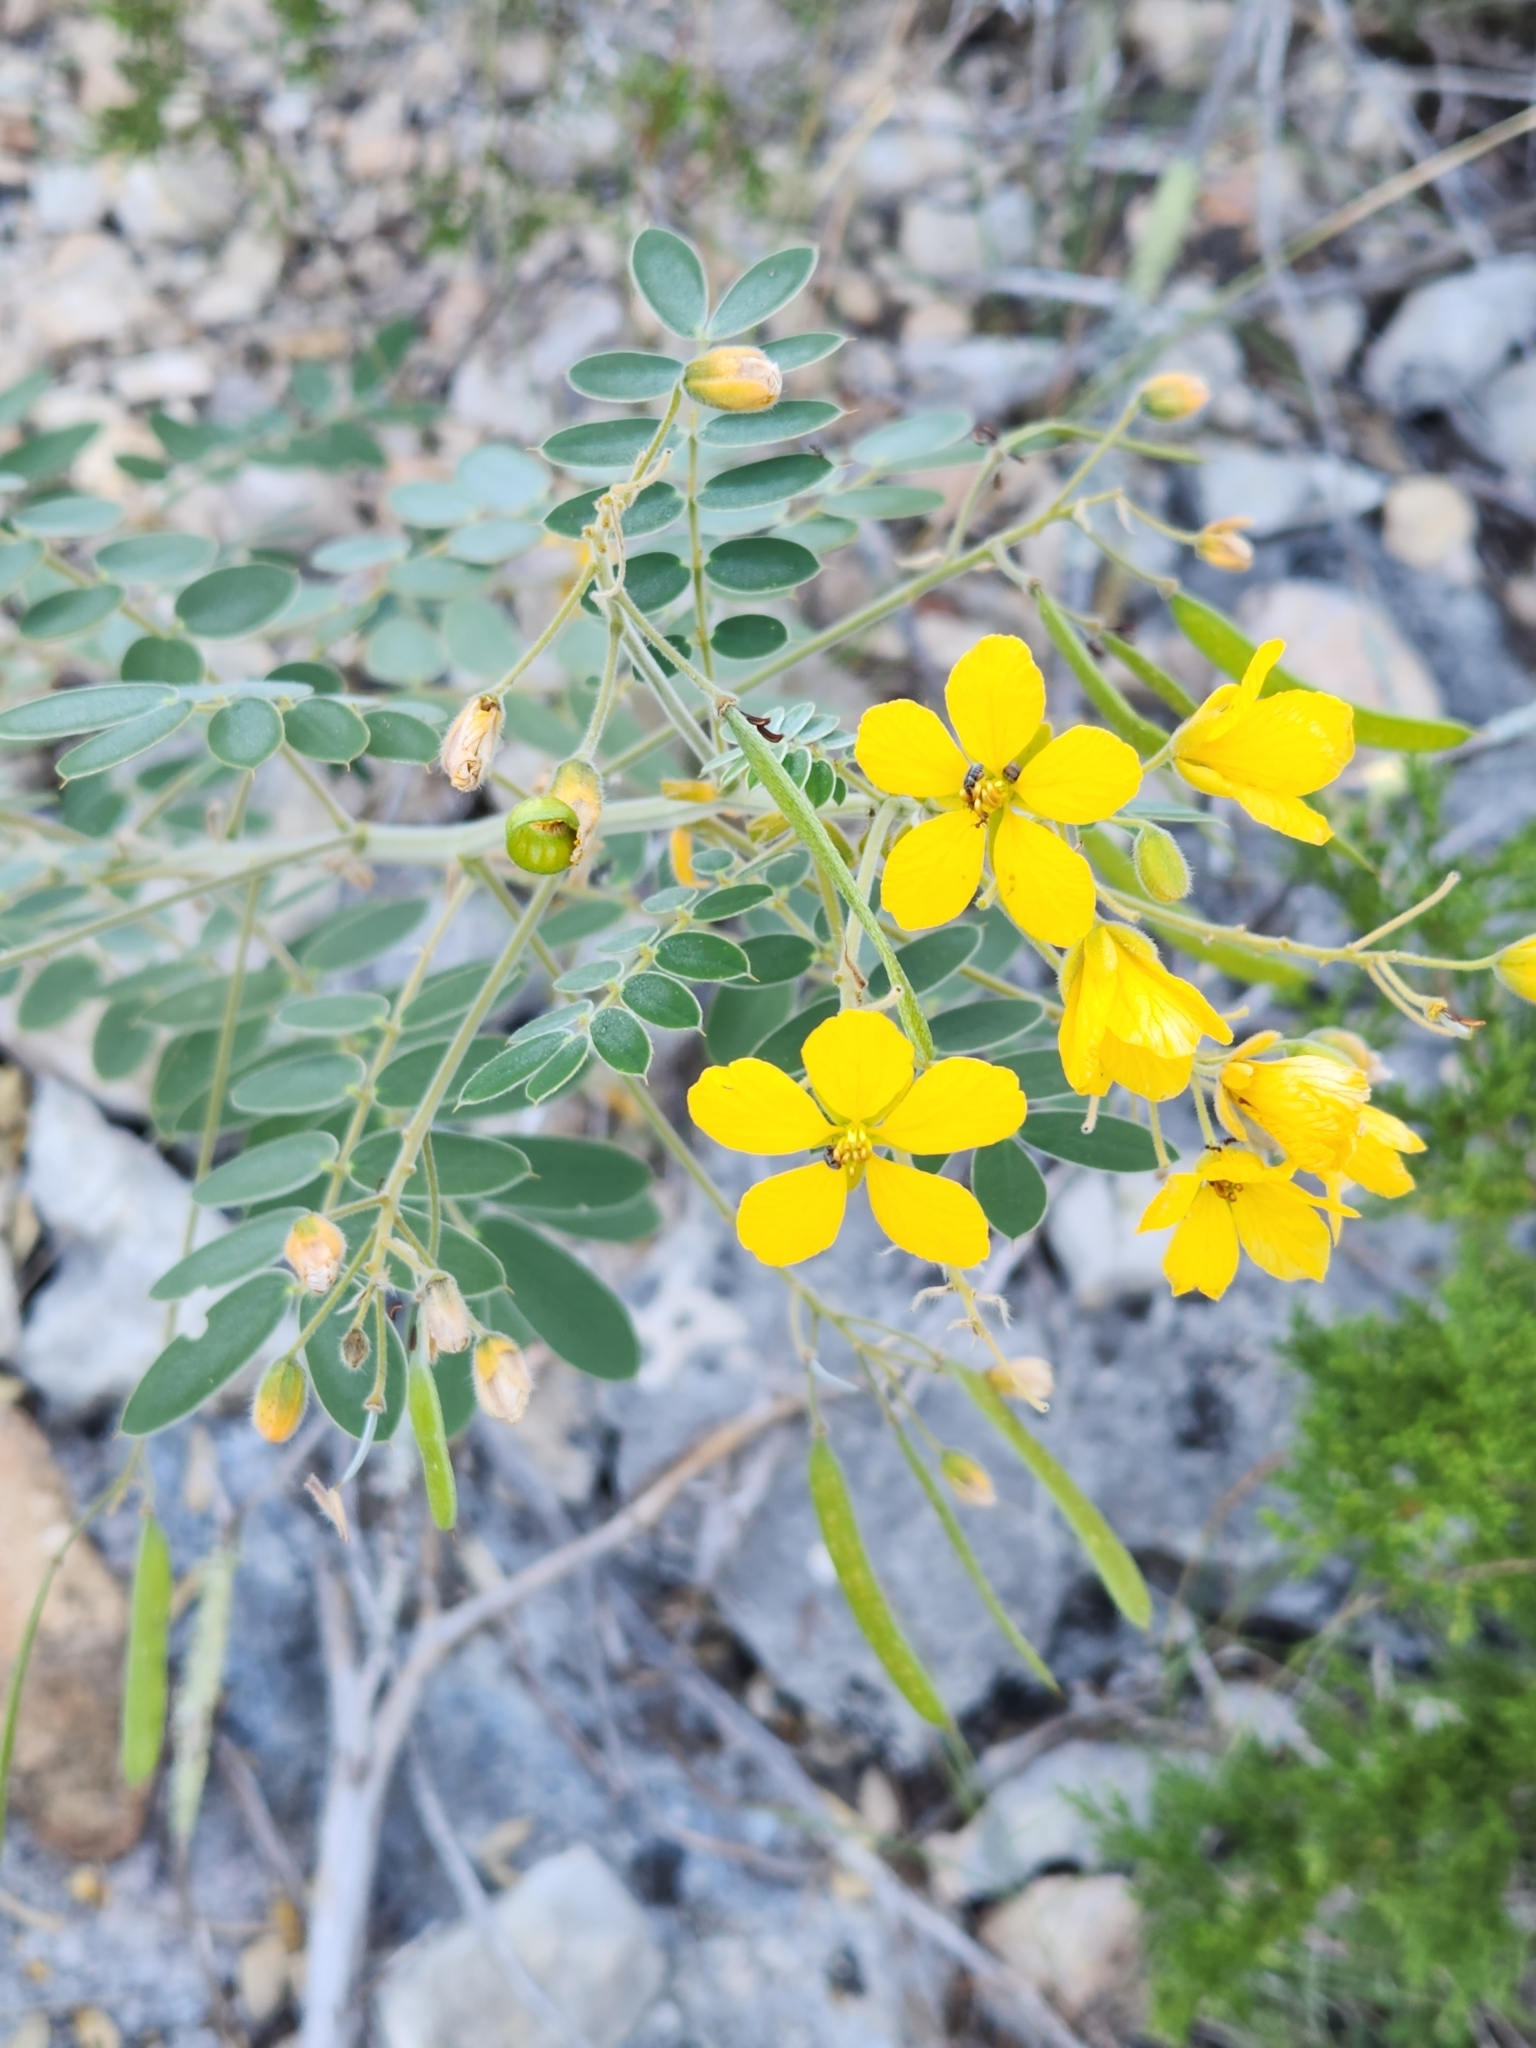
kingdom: Plantae
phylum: Tracheophyta
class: Magnoliopsida
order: Fabales
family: Fabaceae
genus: Senna
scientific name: Senna lindheimeriana
